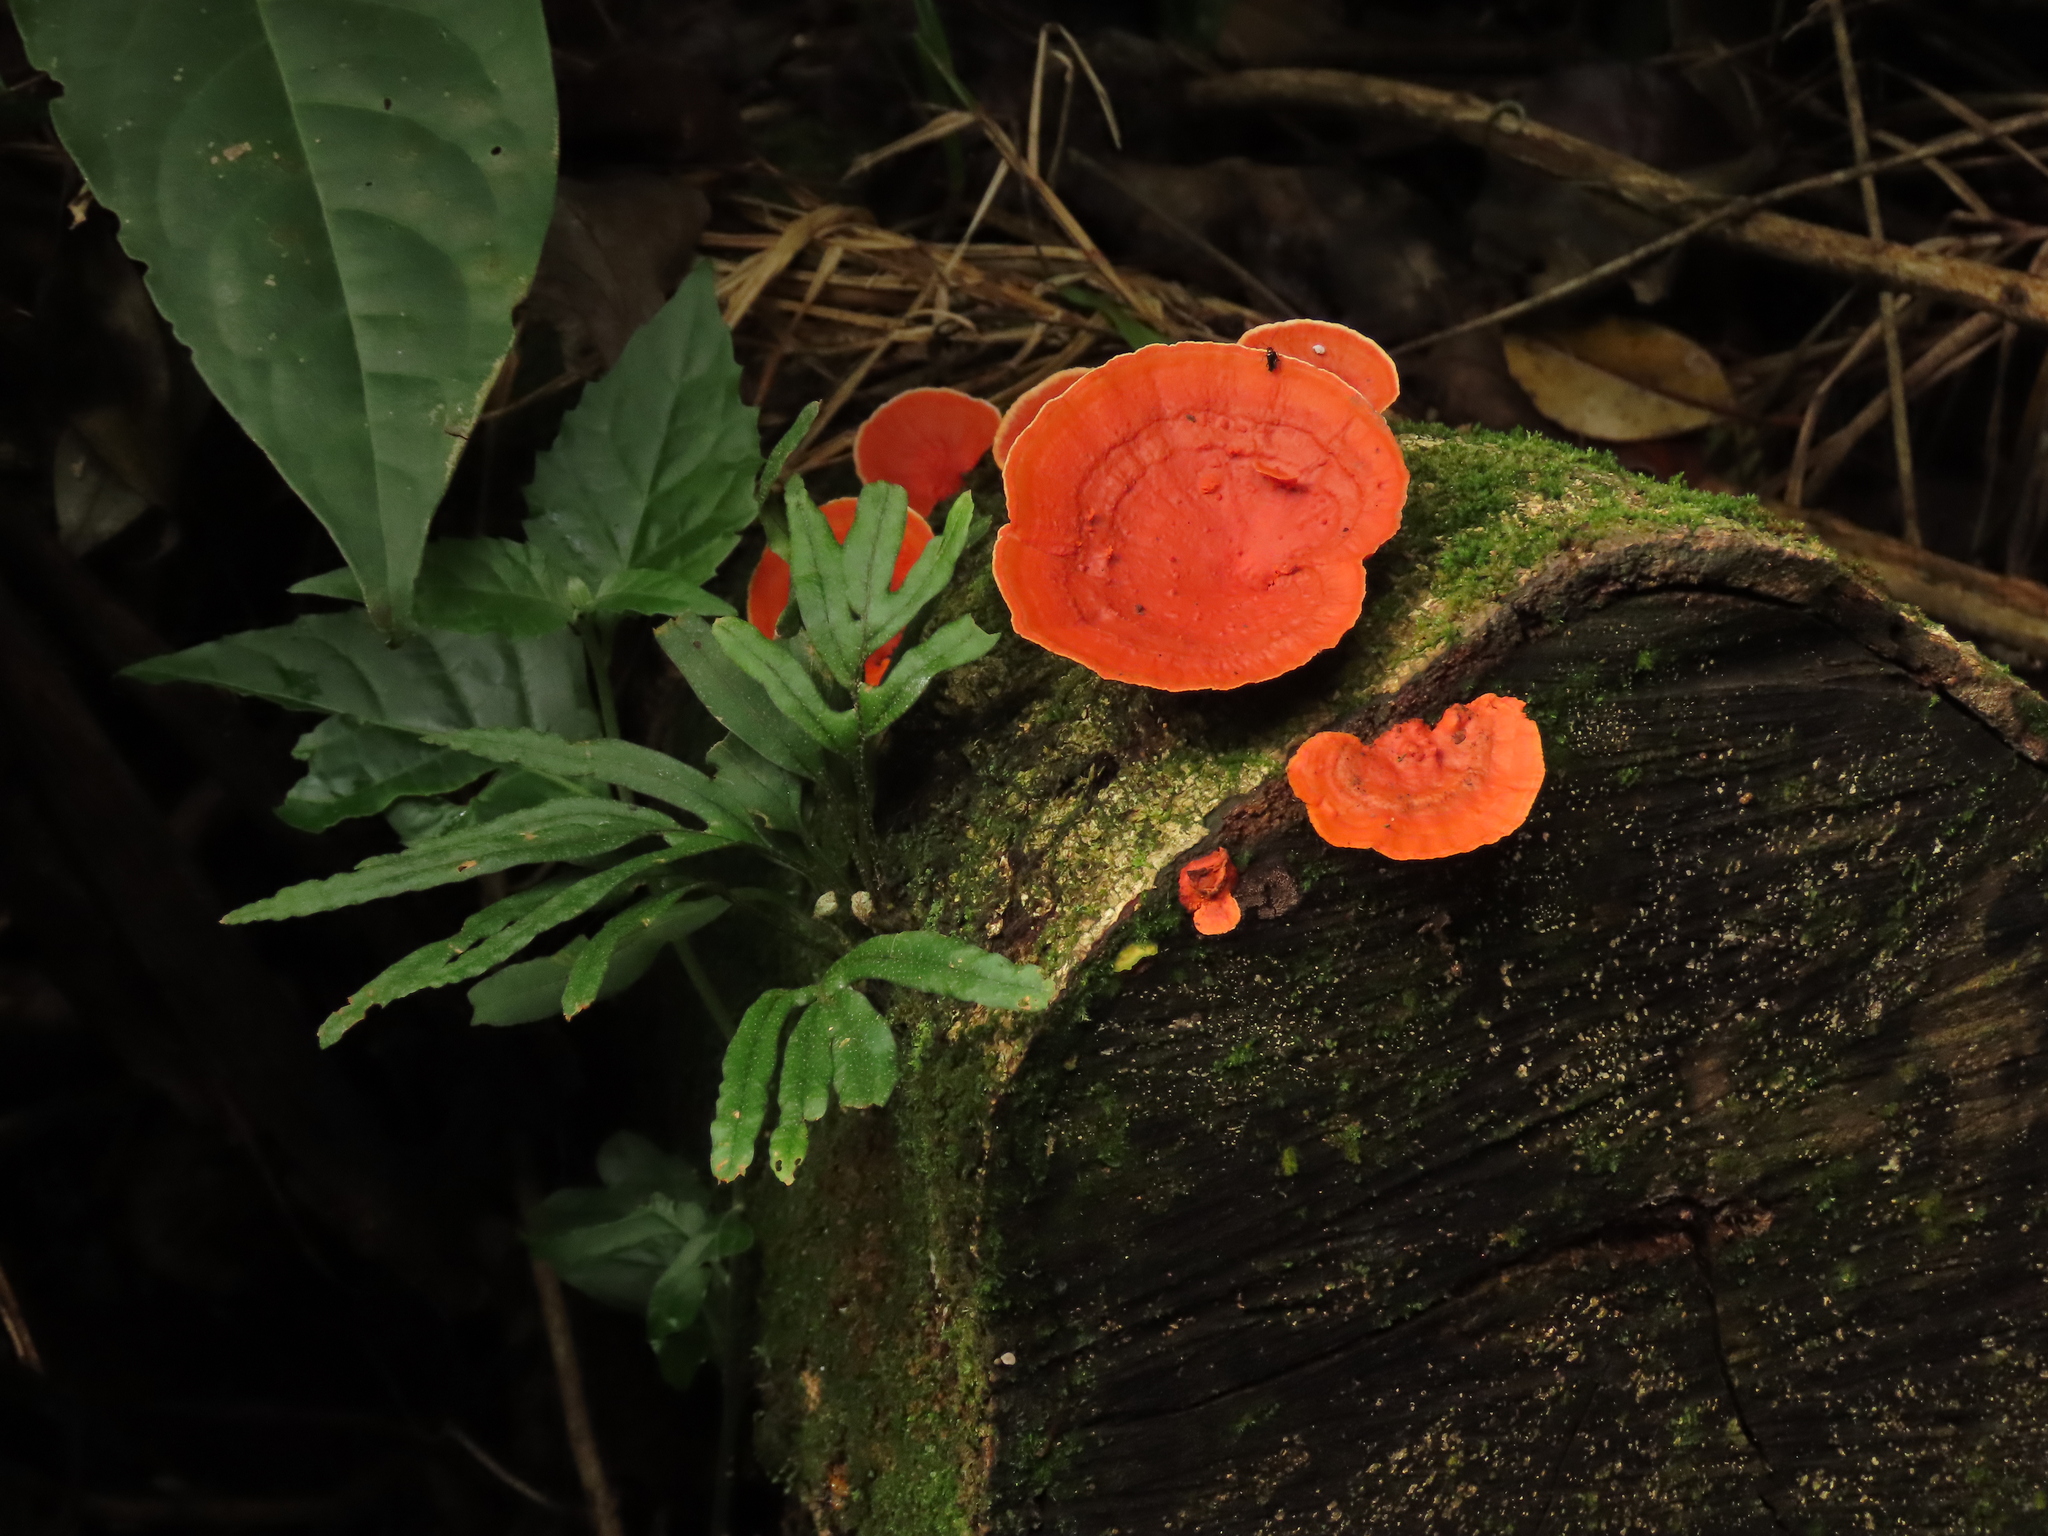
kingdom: Fungi
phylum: Basidiomycota
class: Agaricomycetes
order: Polyporales
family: Polyporaceae
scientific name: Polyporaceae
